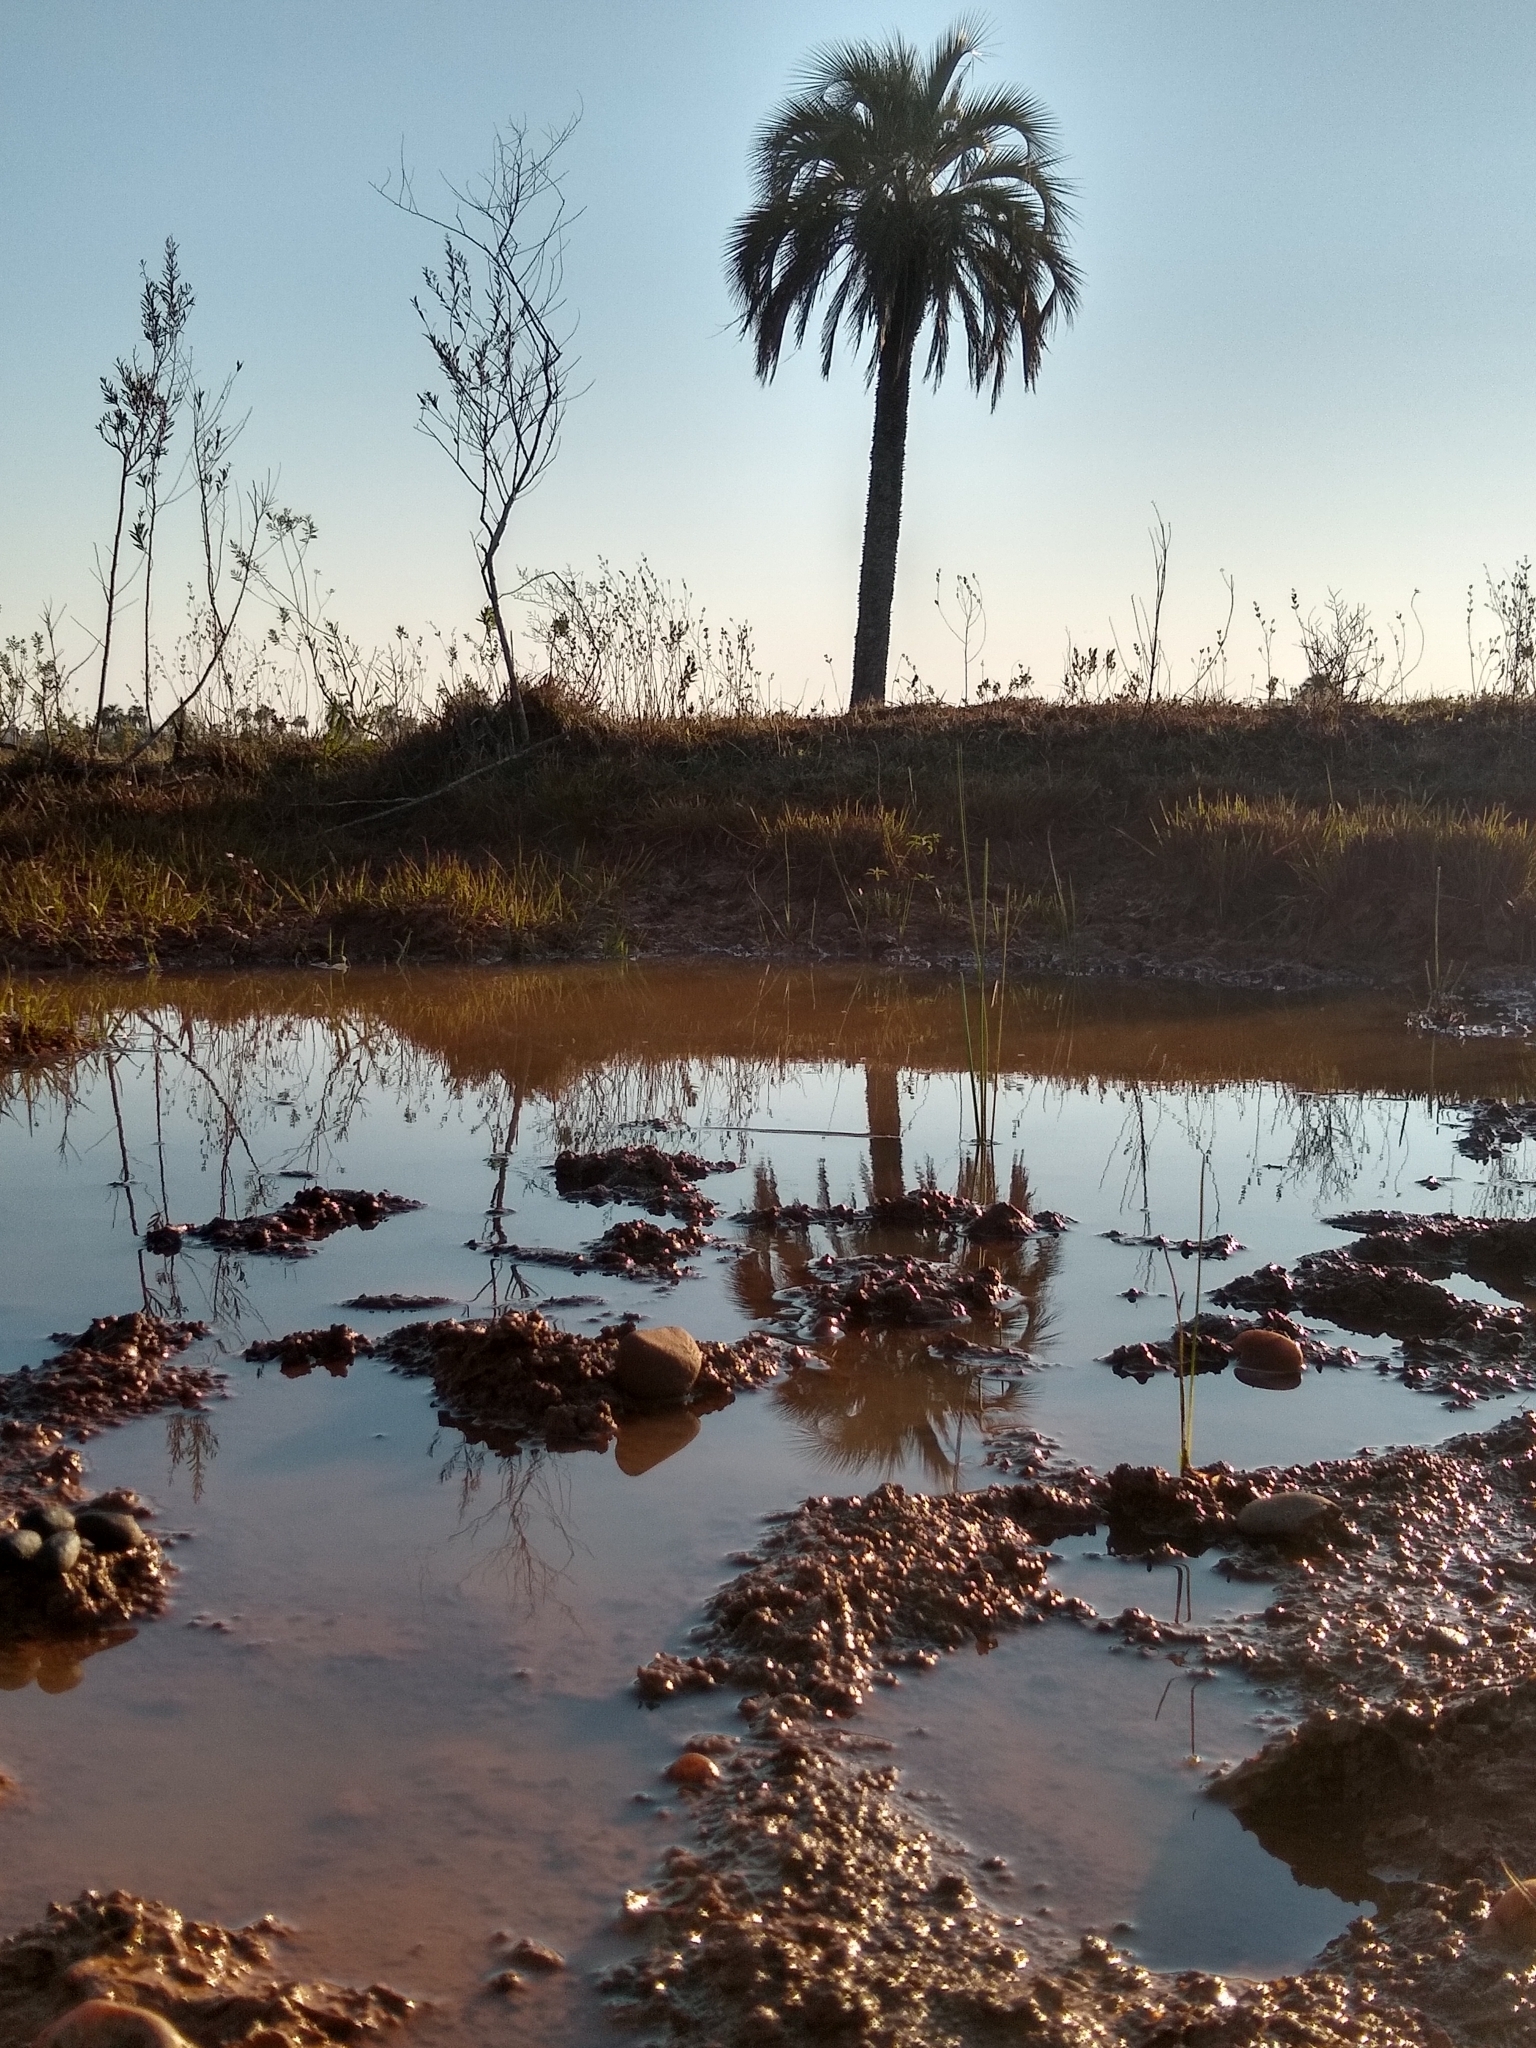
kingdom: Plantae
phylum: Tracheophyta
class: Liliopsida
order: Arecales
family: Arecaceae
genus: Butia
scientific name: Butia yatay
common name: Yatay palm
